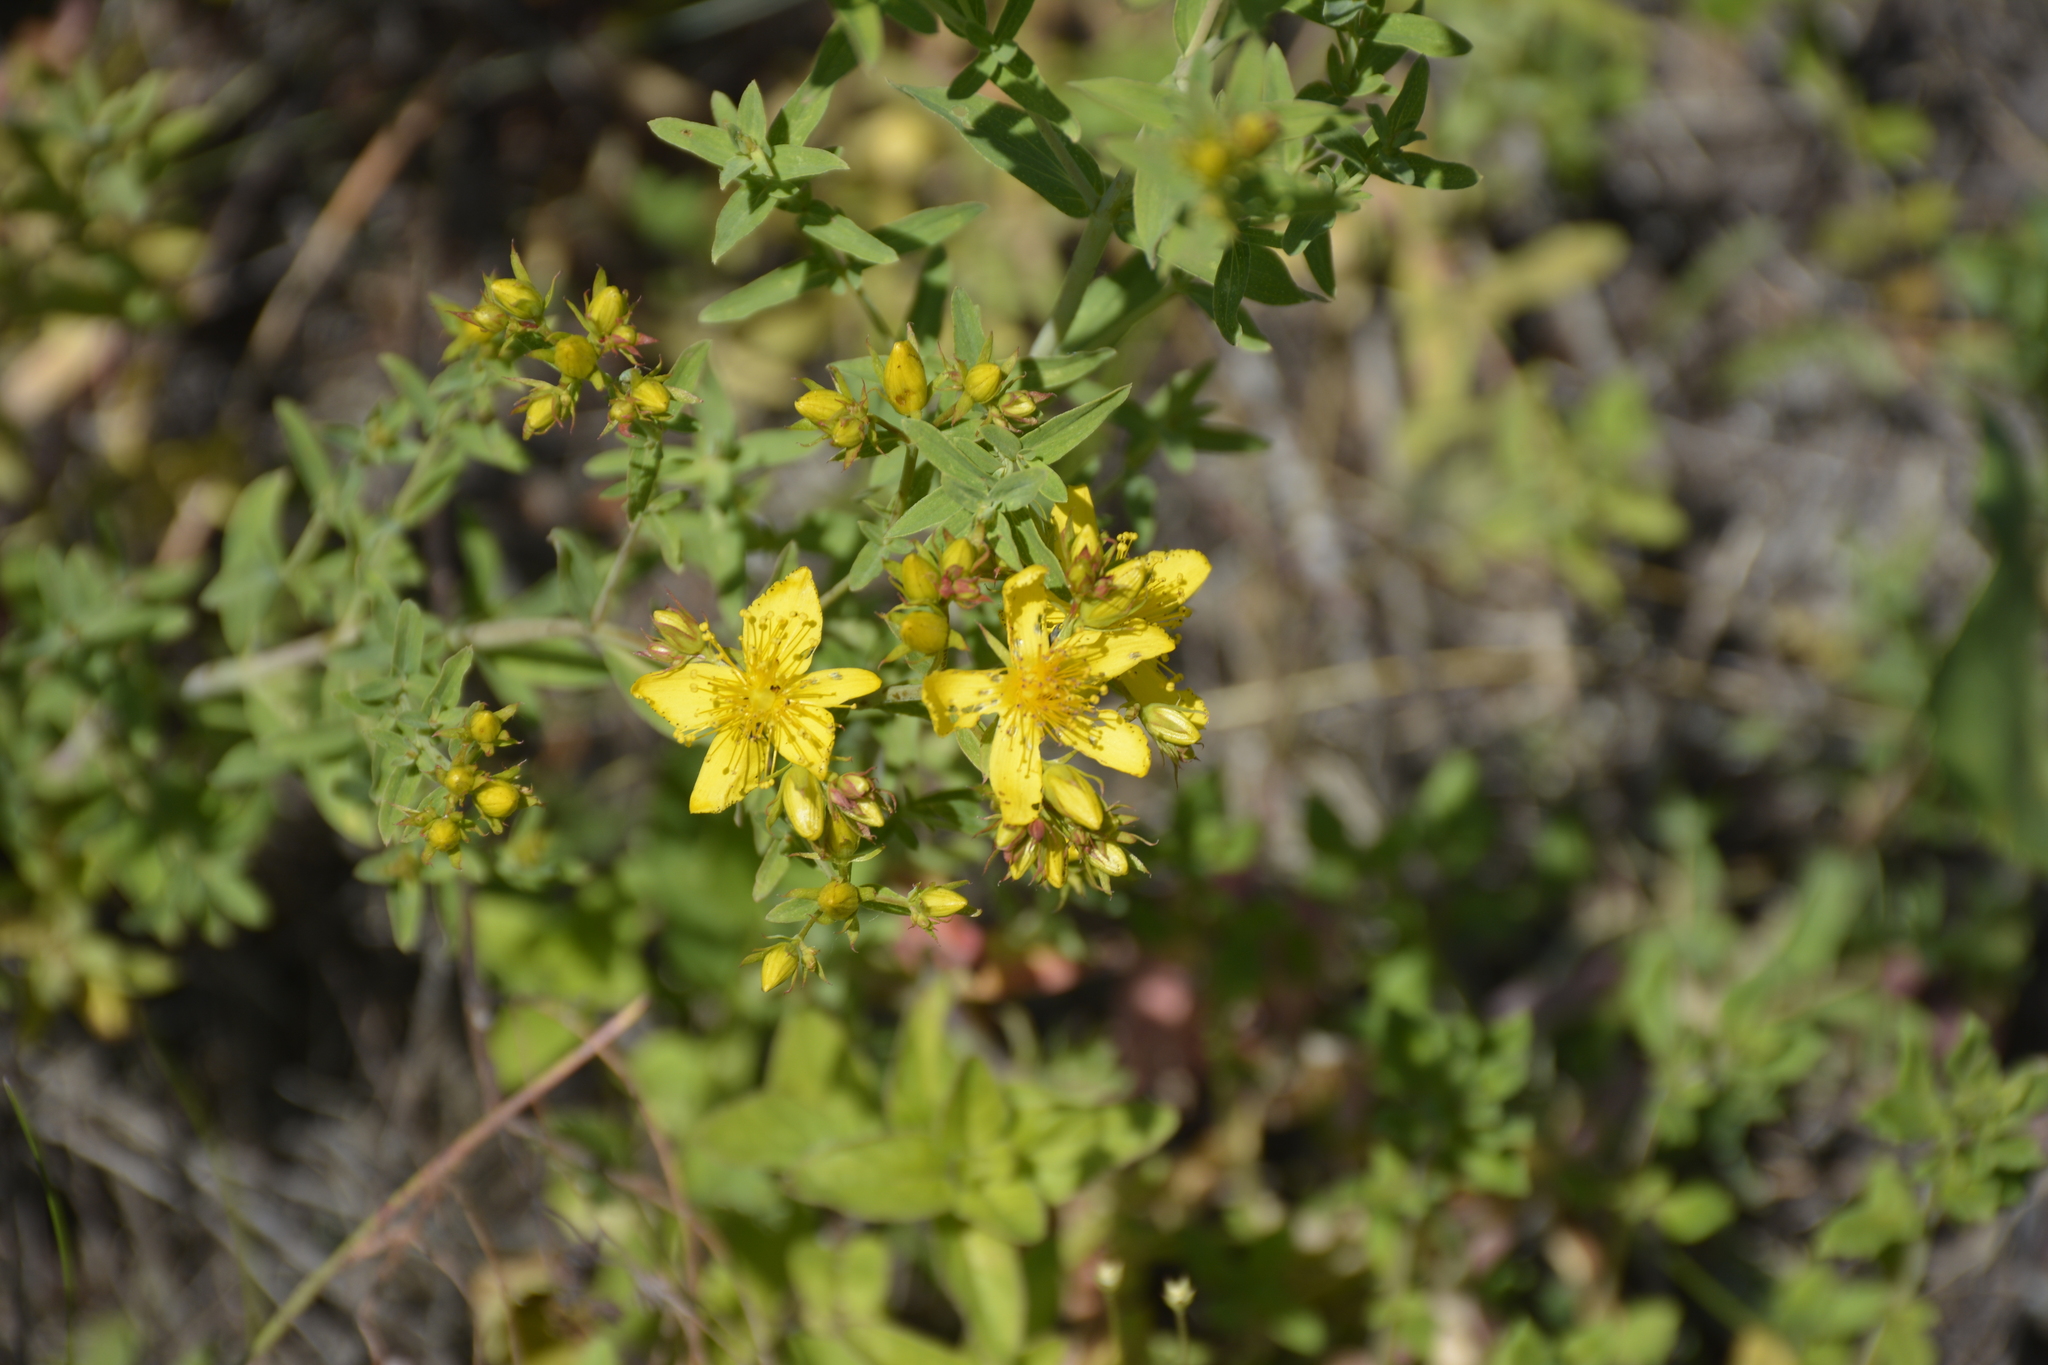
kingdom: Plantae
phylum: Tracheophyta
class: Magnoliopsida
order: Malpighiales
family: Hypericaceae
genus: Hypericum
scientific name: Hypericum perforatum
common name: Common st. johnswort
